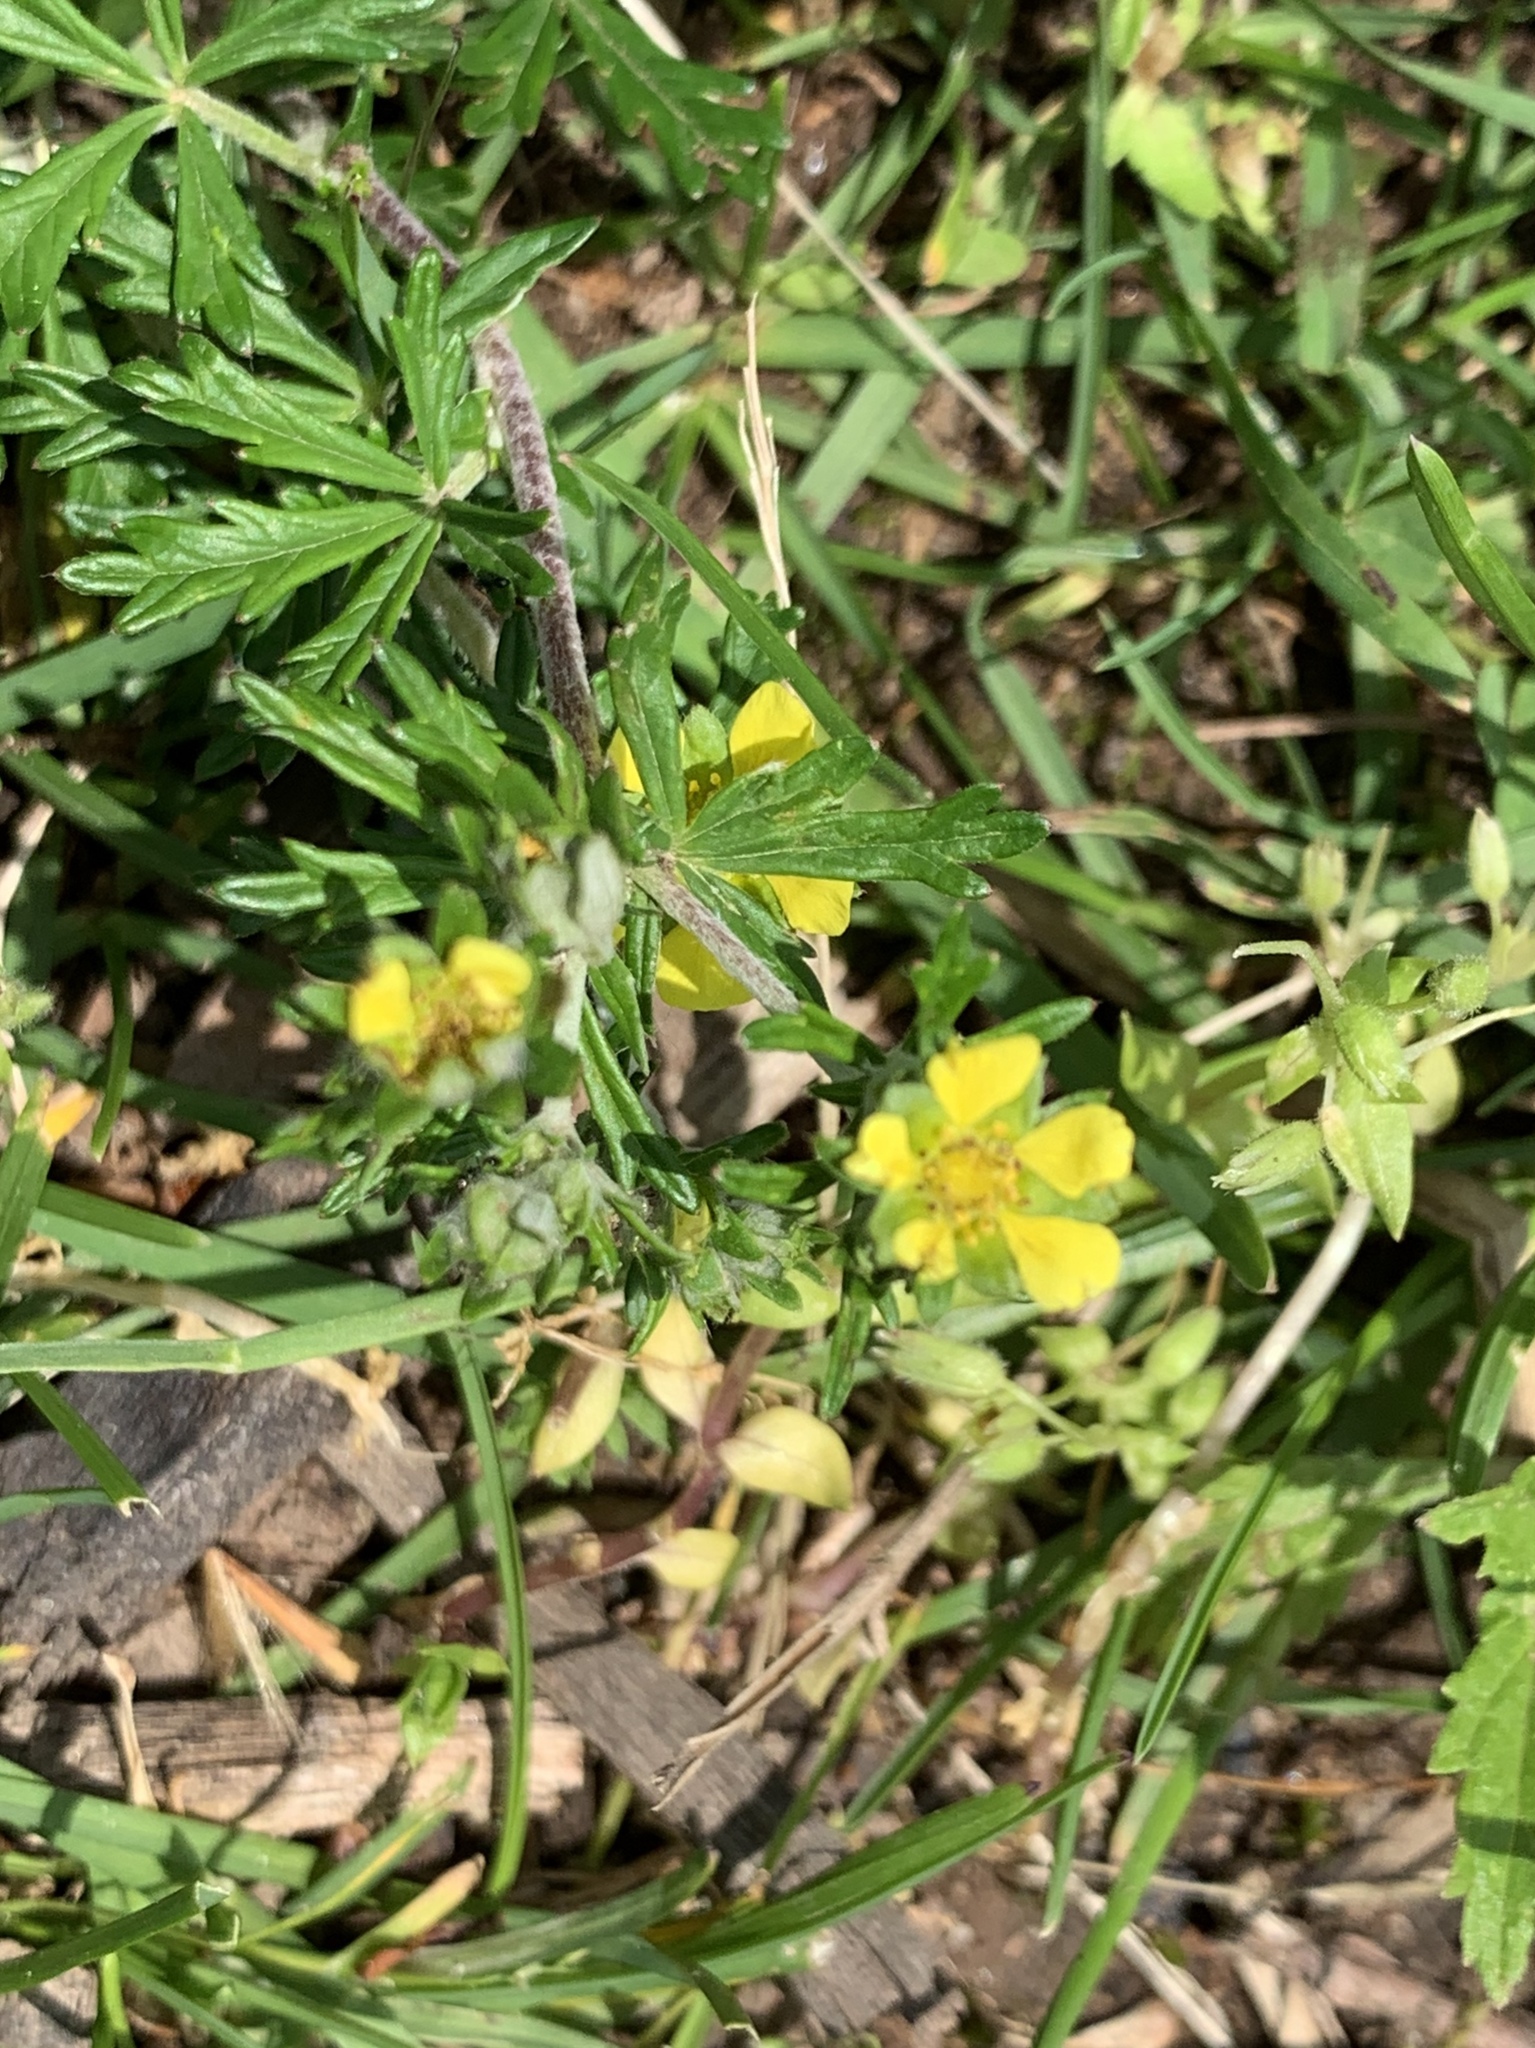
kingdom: Plantae
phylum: Tracheophyta
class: Magnoliopsida
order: Rosales
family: Rosaceae
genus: Potentilla
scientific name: Potentilla argentea
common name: Hoary cinquefoil
